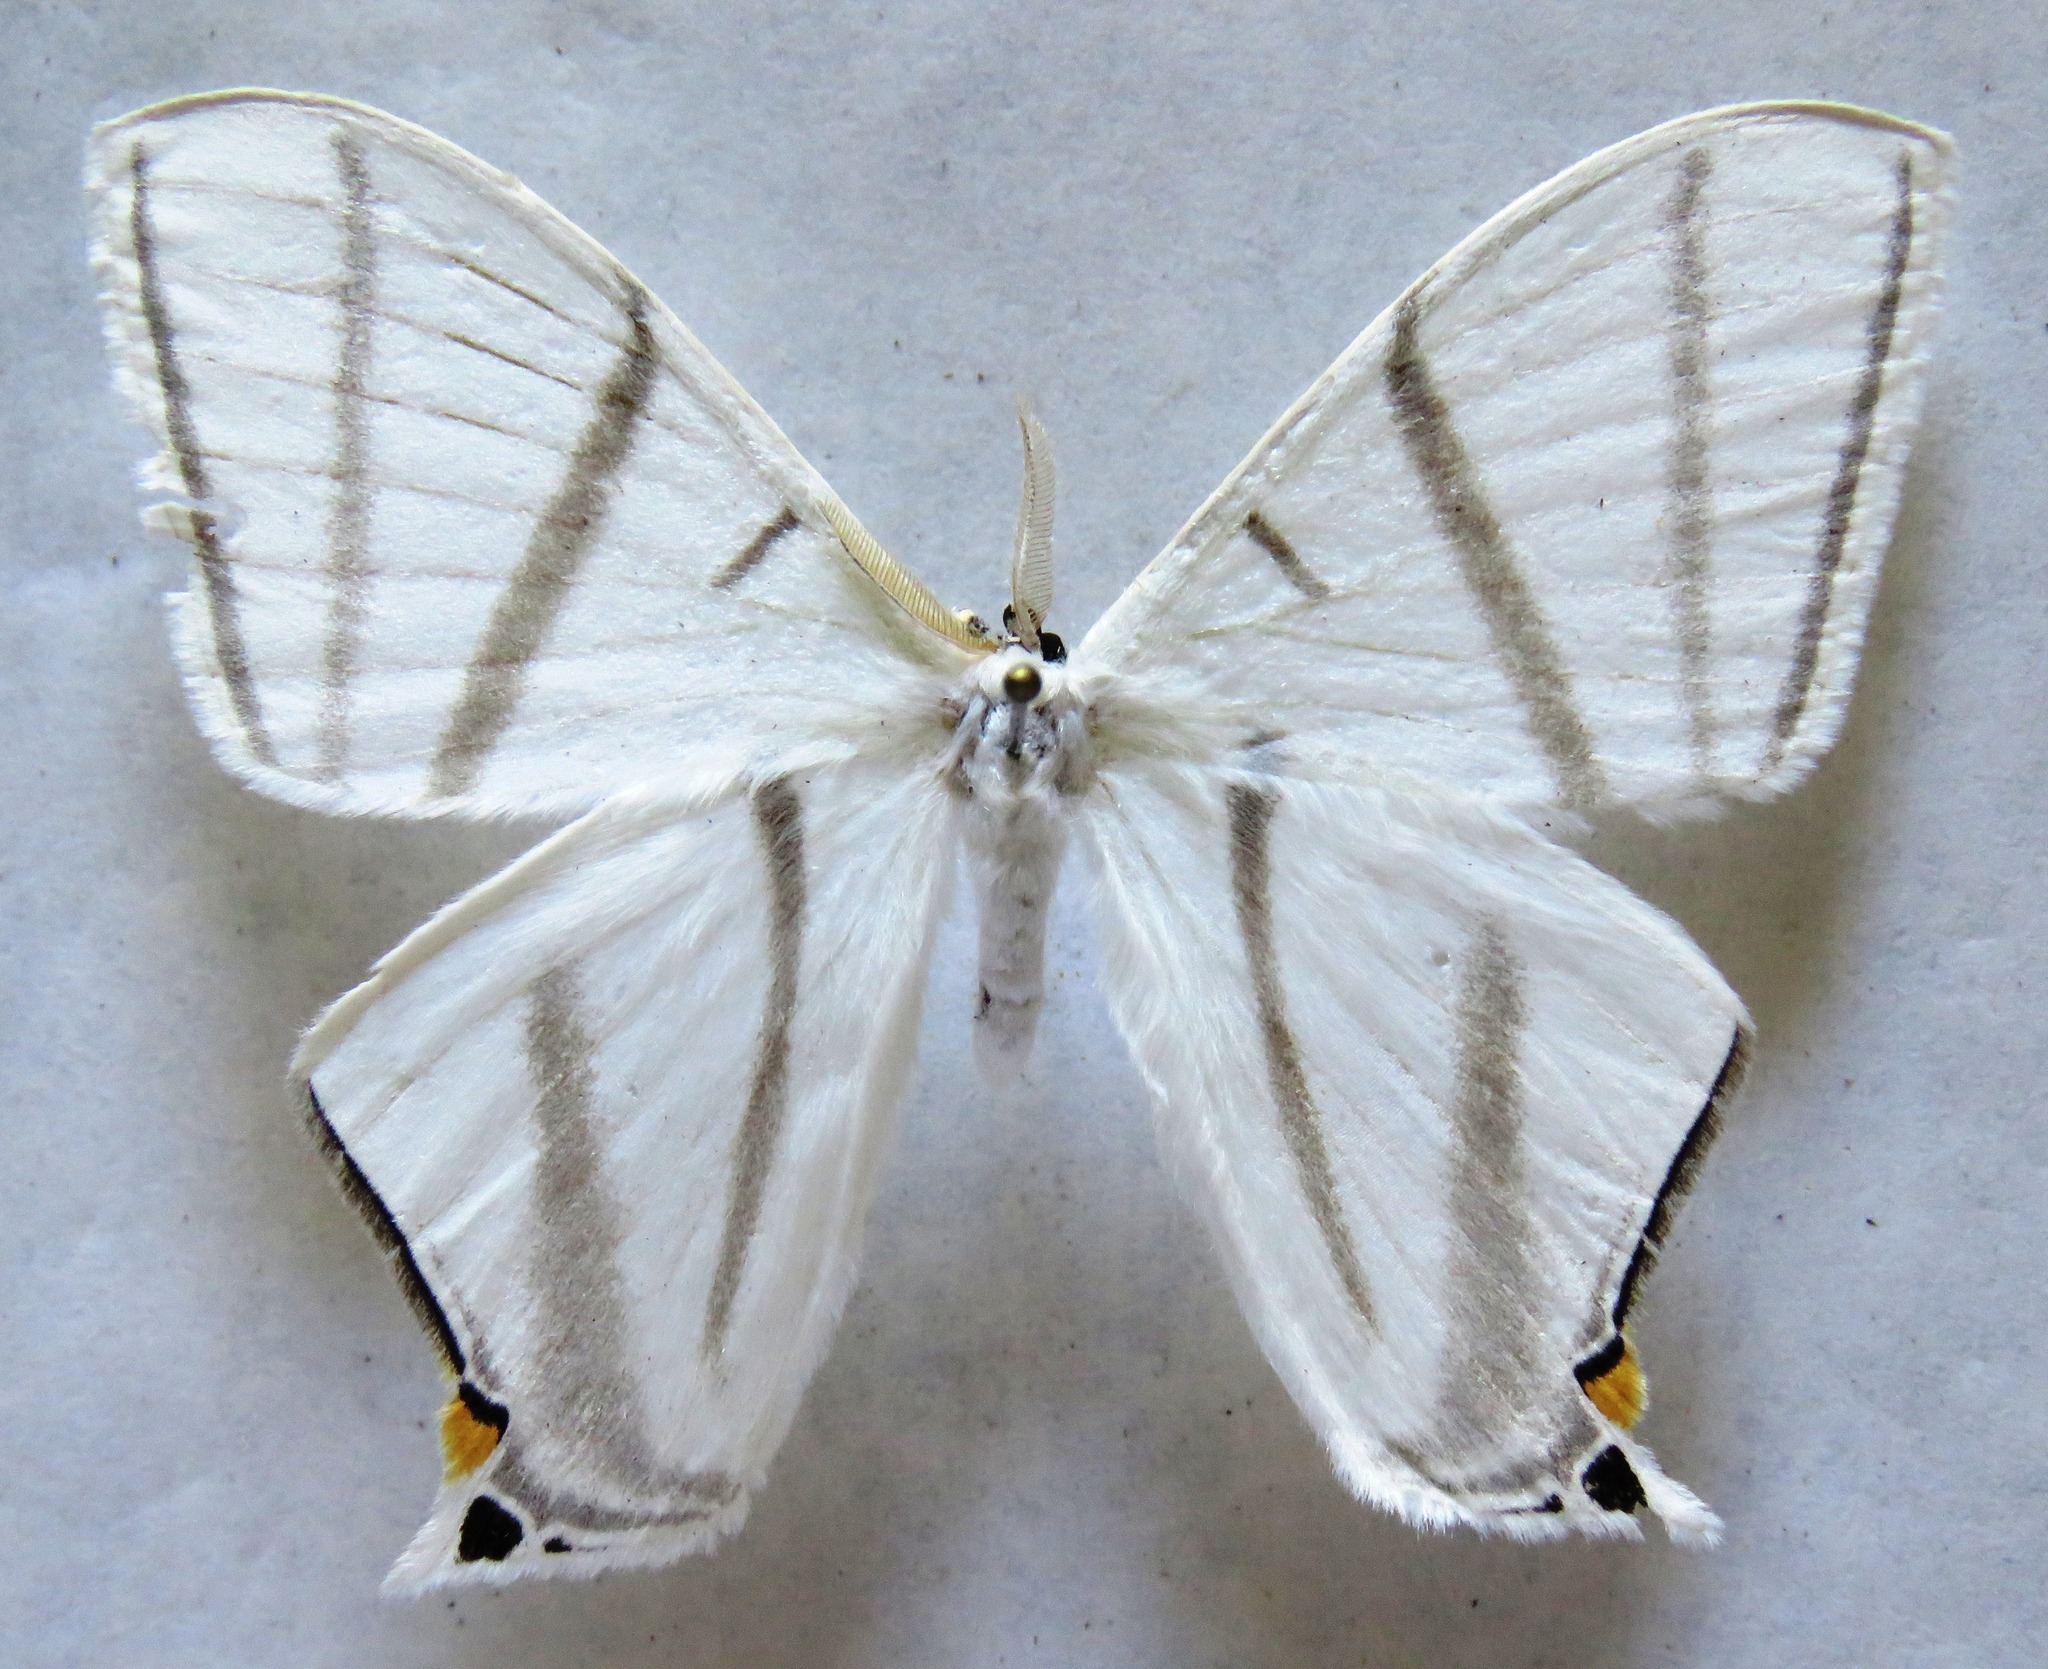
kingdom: Animalia
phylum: Arthropoda
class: Insecta
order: Lepidoptera
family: Saturniidae
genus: Therinia
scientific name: Therinia transversaria
